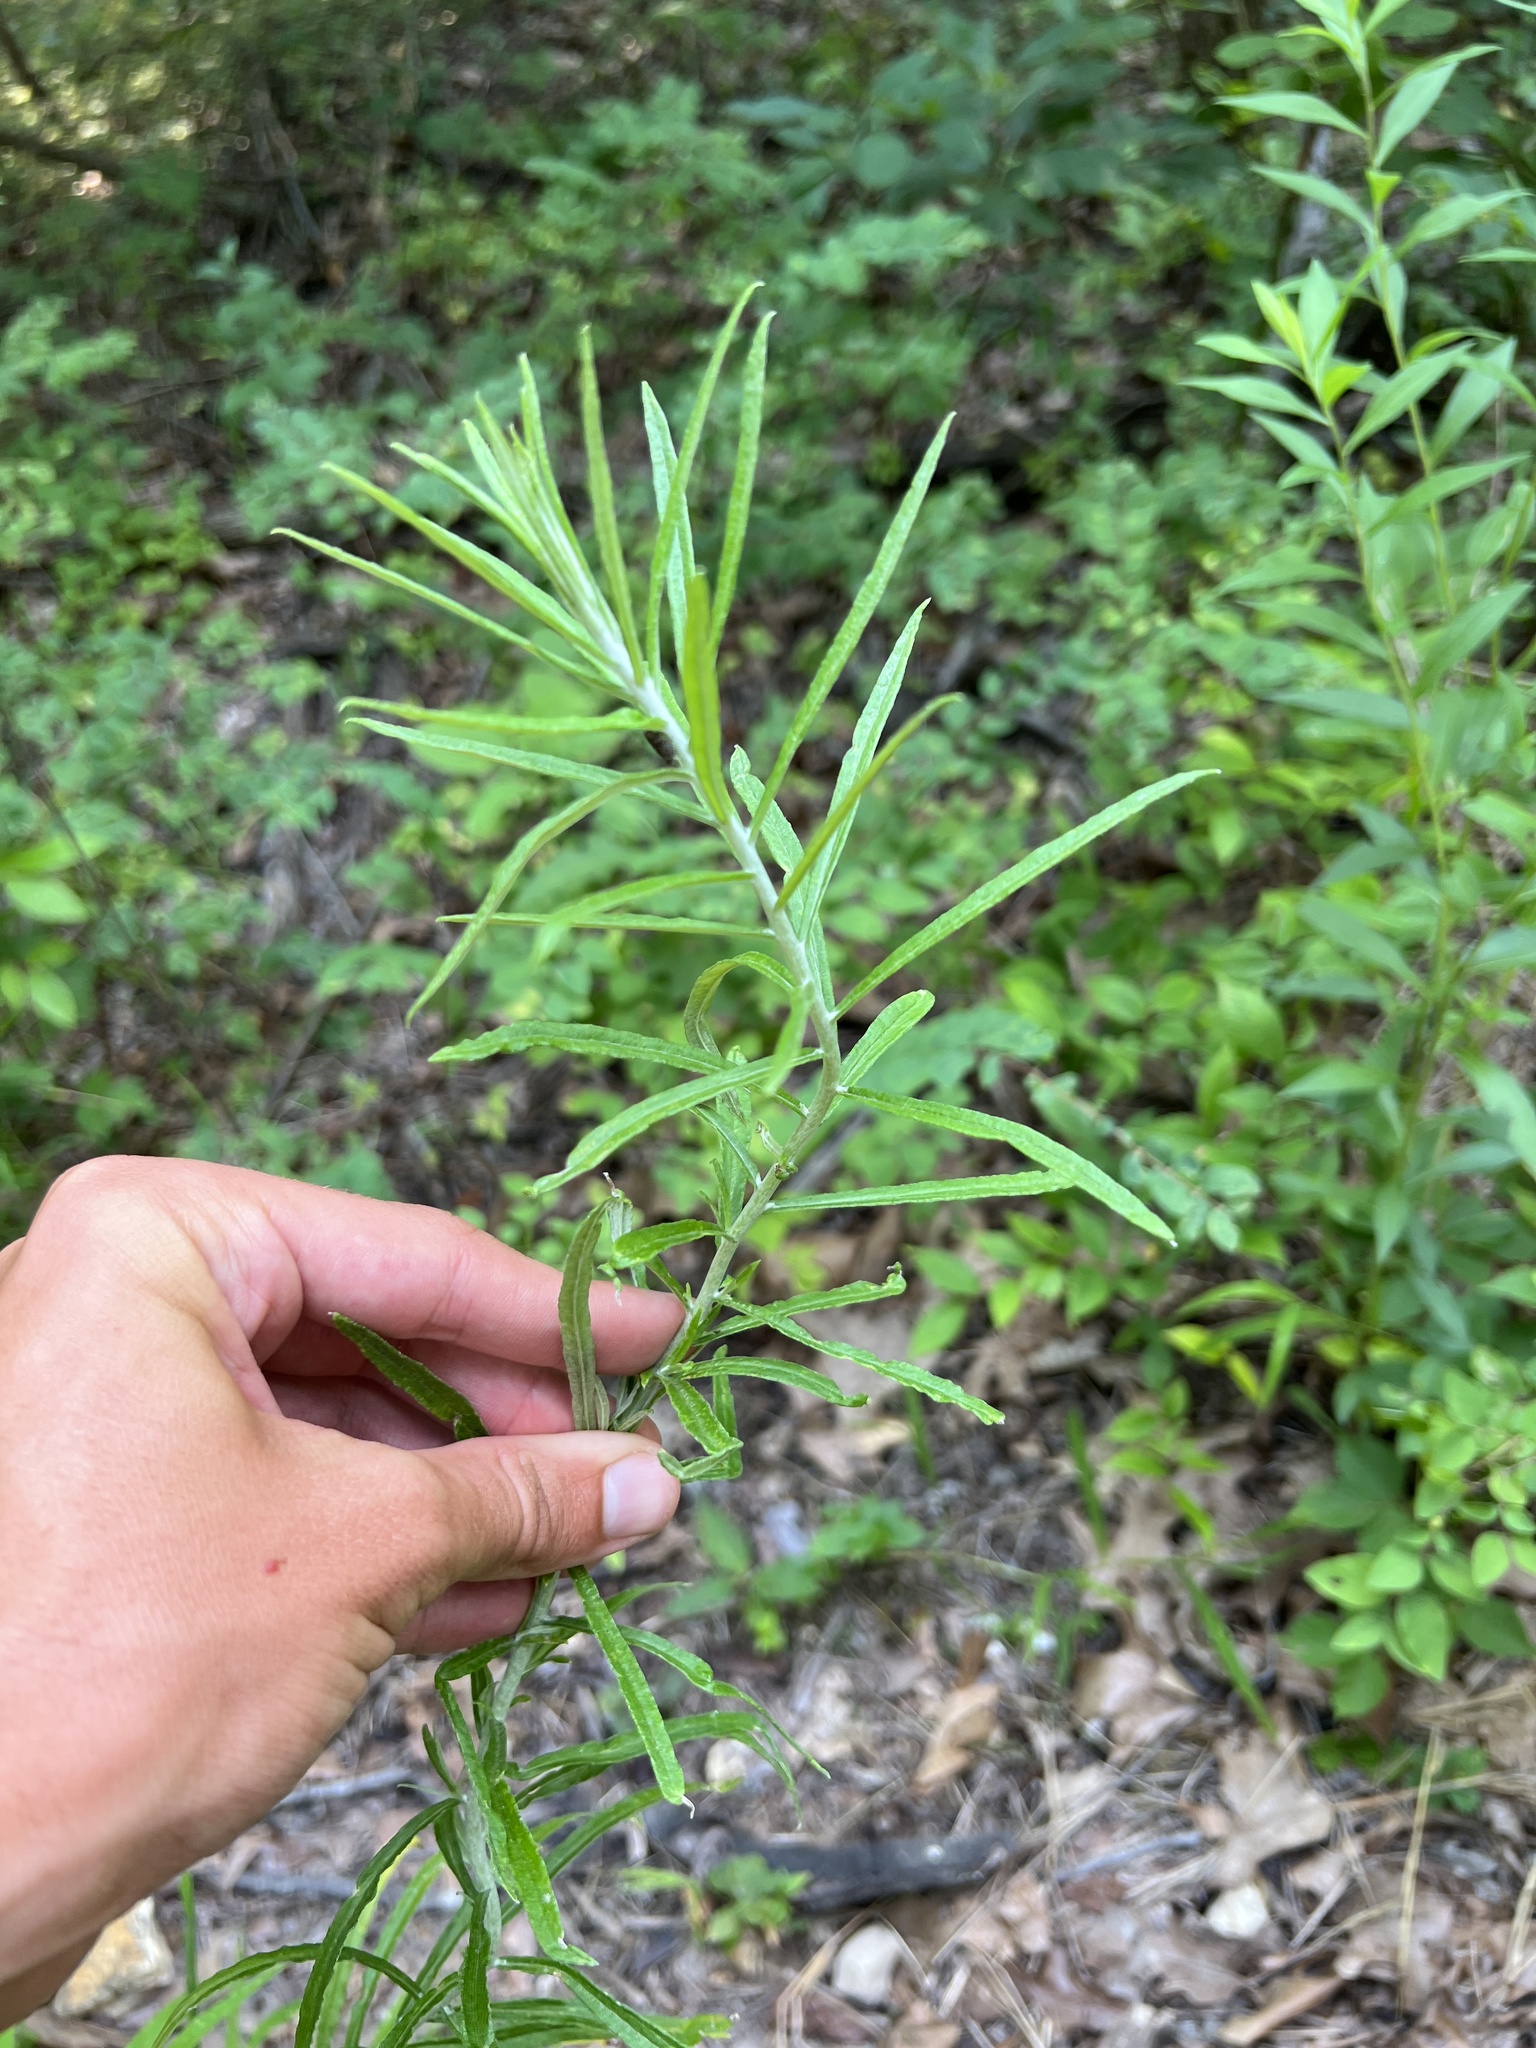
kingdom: Plantae
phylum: Tracheophyta
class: Magnoliopsida
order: Asterales
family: Asteraceae
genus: Pseudognaphalium
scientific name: Pseudognaphalium obtusifolium
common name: Eastern rabbit-tobacco
